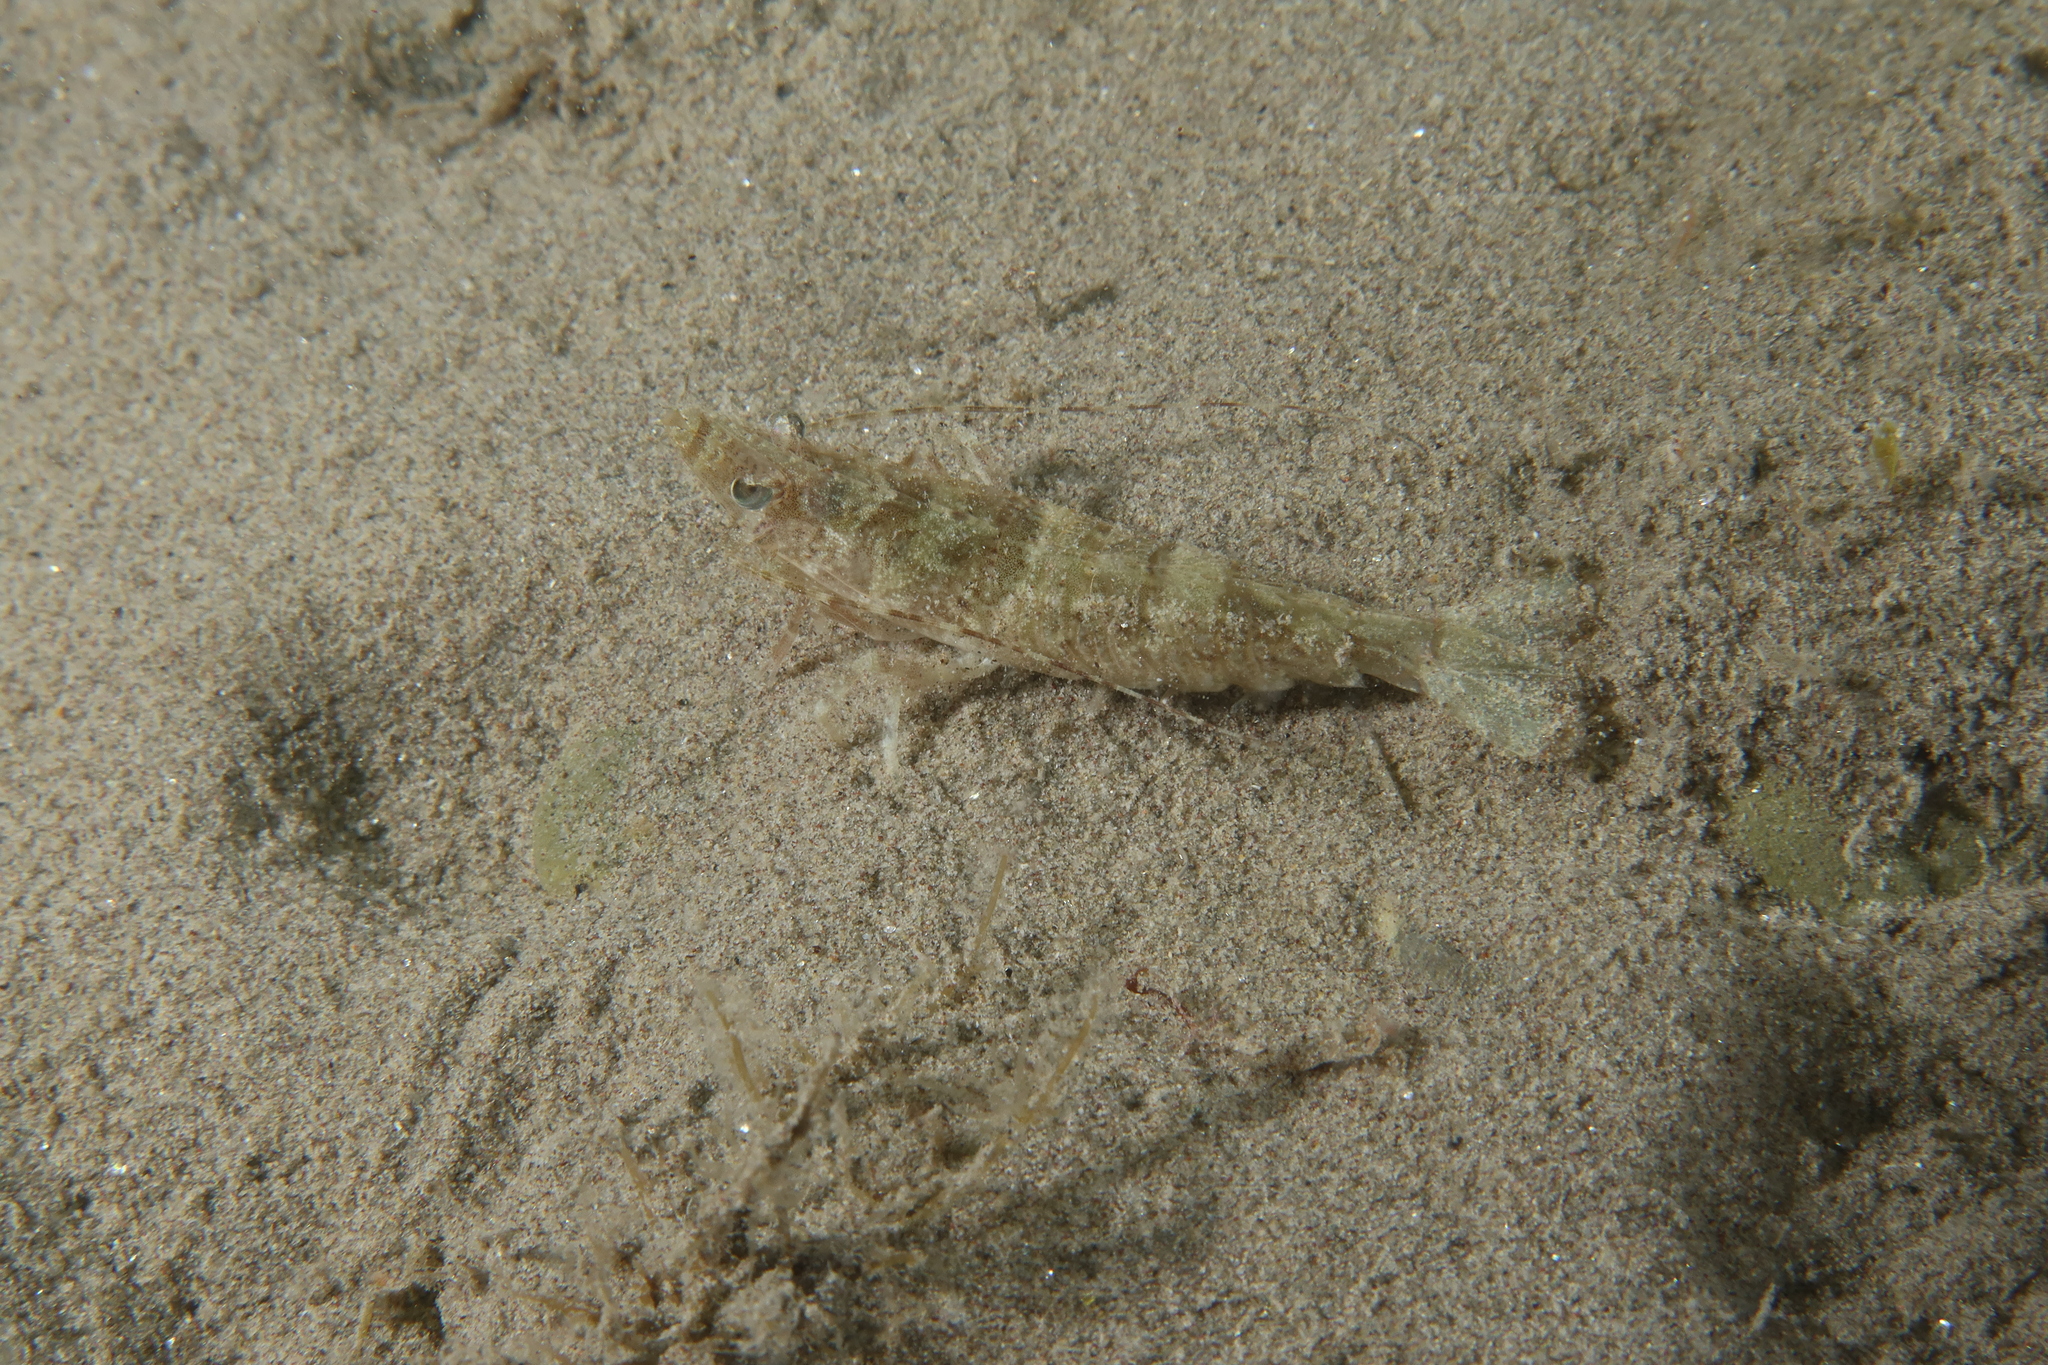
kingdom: Animalia
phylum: Arthropoda
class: Malacostraca
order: Decapoda
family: Sicyoniidae
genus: Sicyonia
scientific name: Sicyonia carinata
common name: Mediterranean rock shrimp
